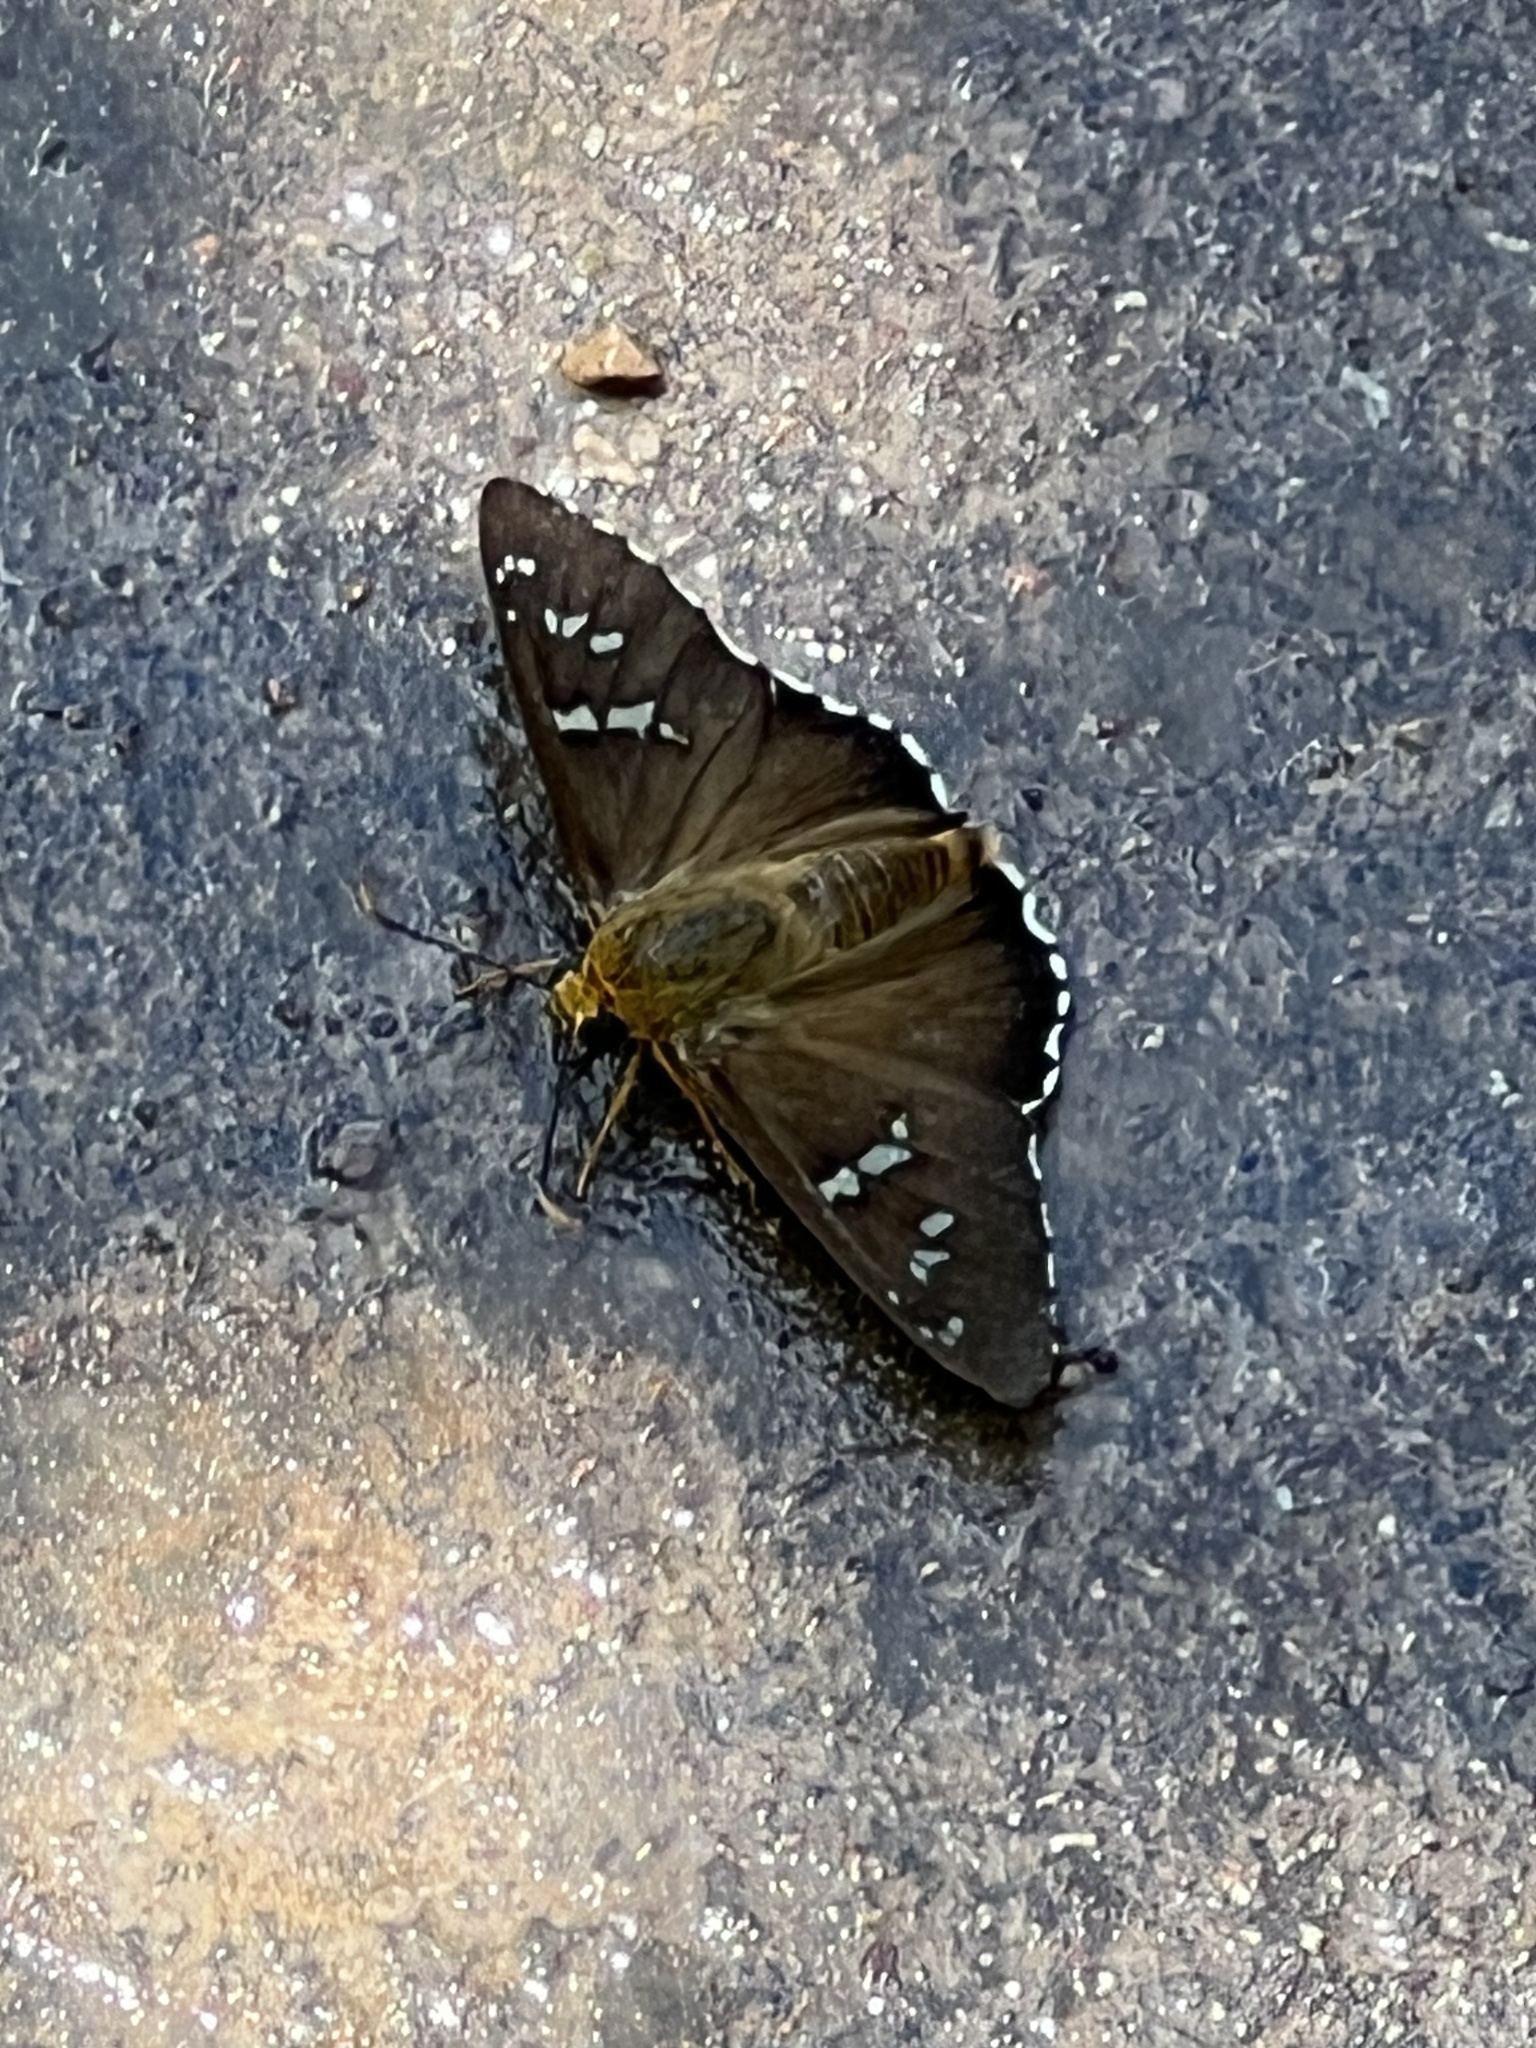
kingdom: Animalia
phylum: Arthropoda
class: Insecta
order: Lepidoptera
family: Hesperiidae
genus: Pyrrhopyge
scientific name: Pyrrhopyge araxes
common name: Dull firetip
